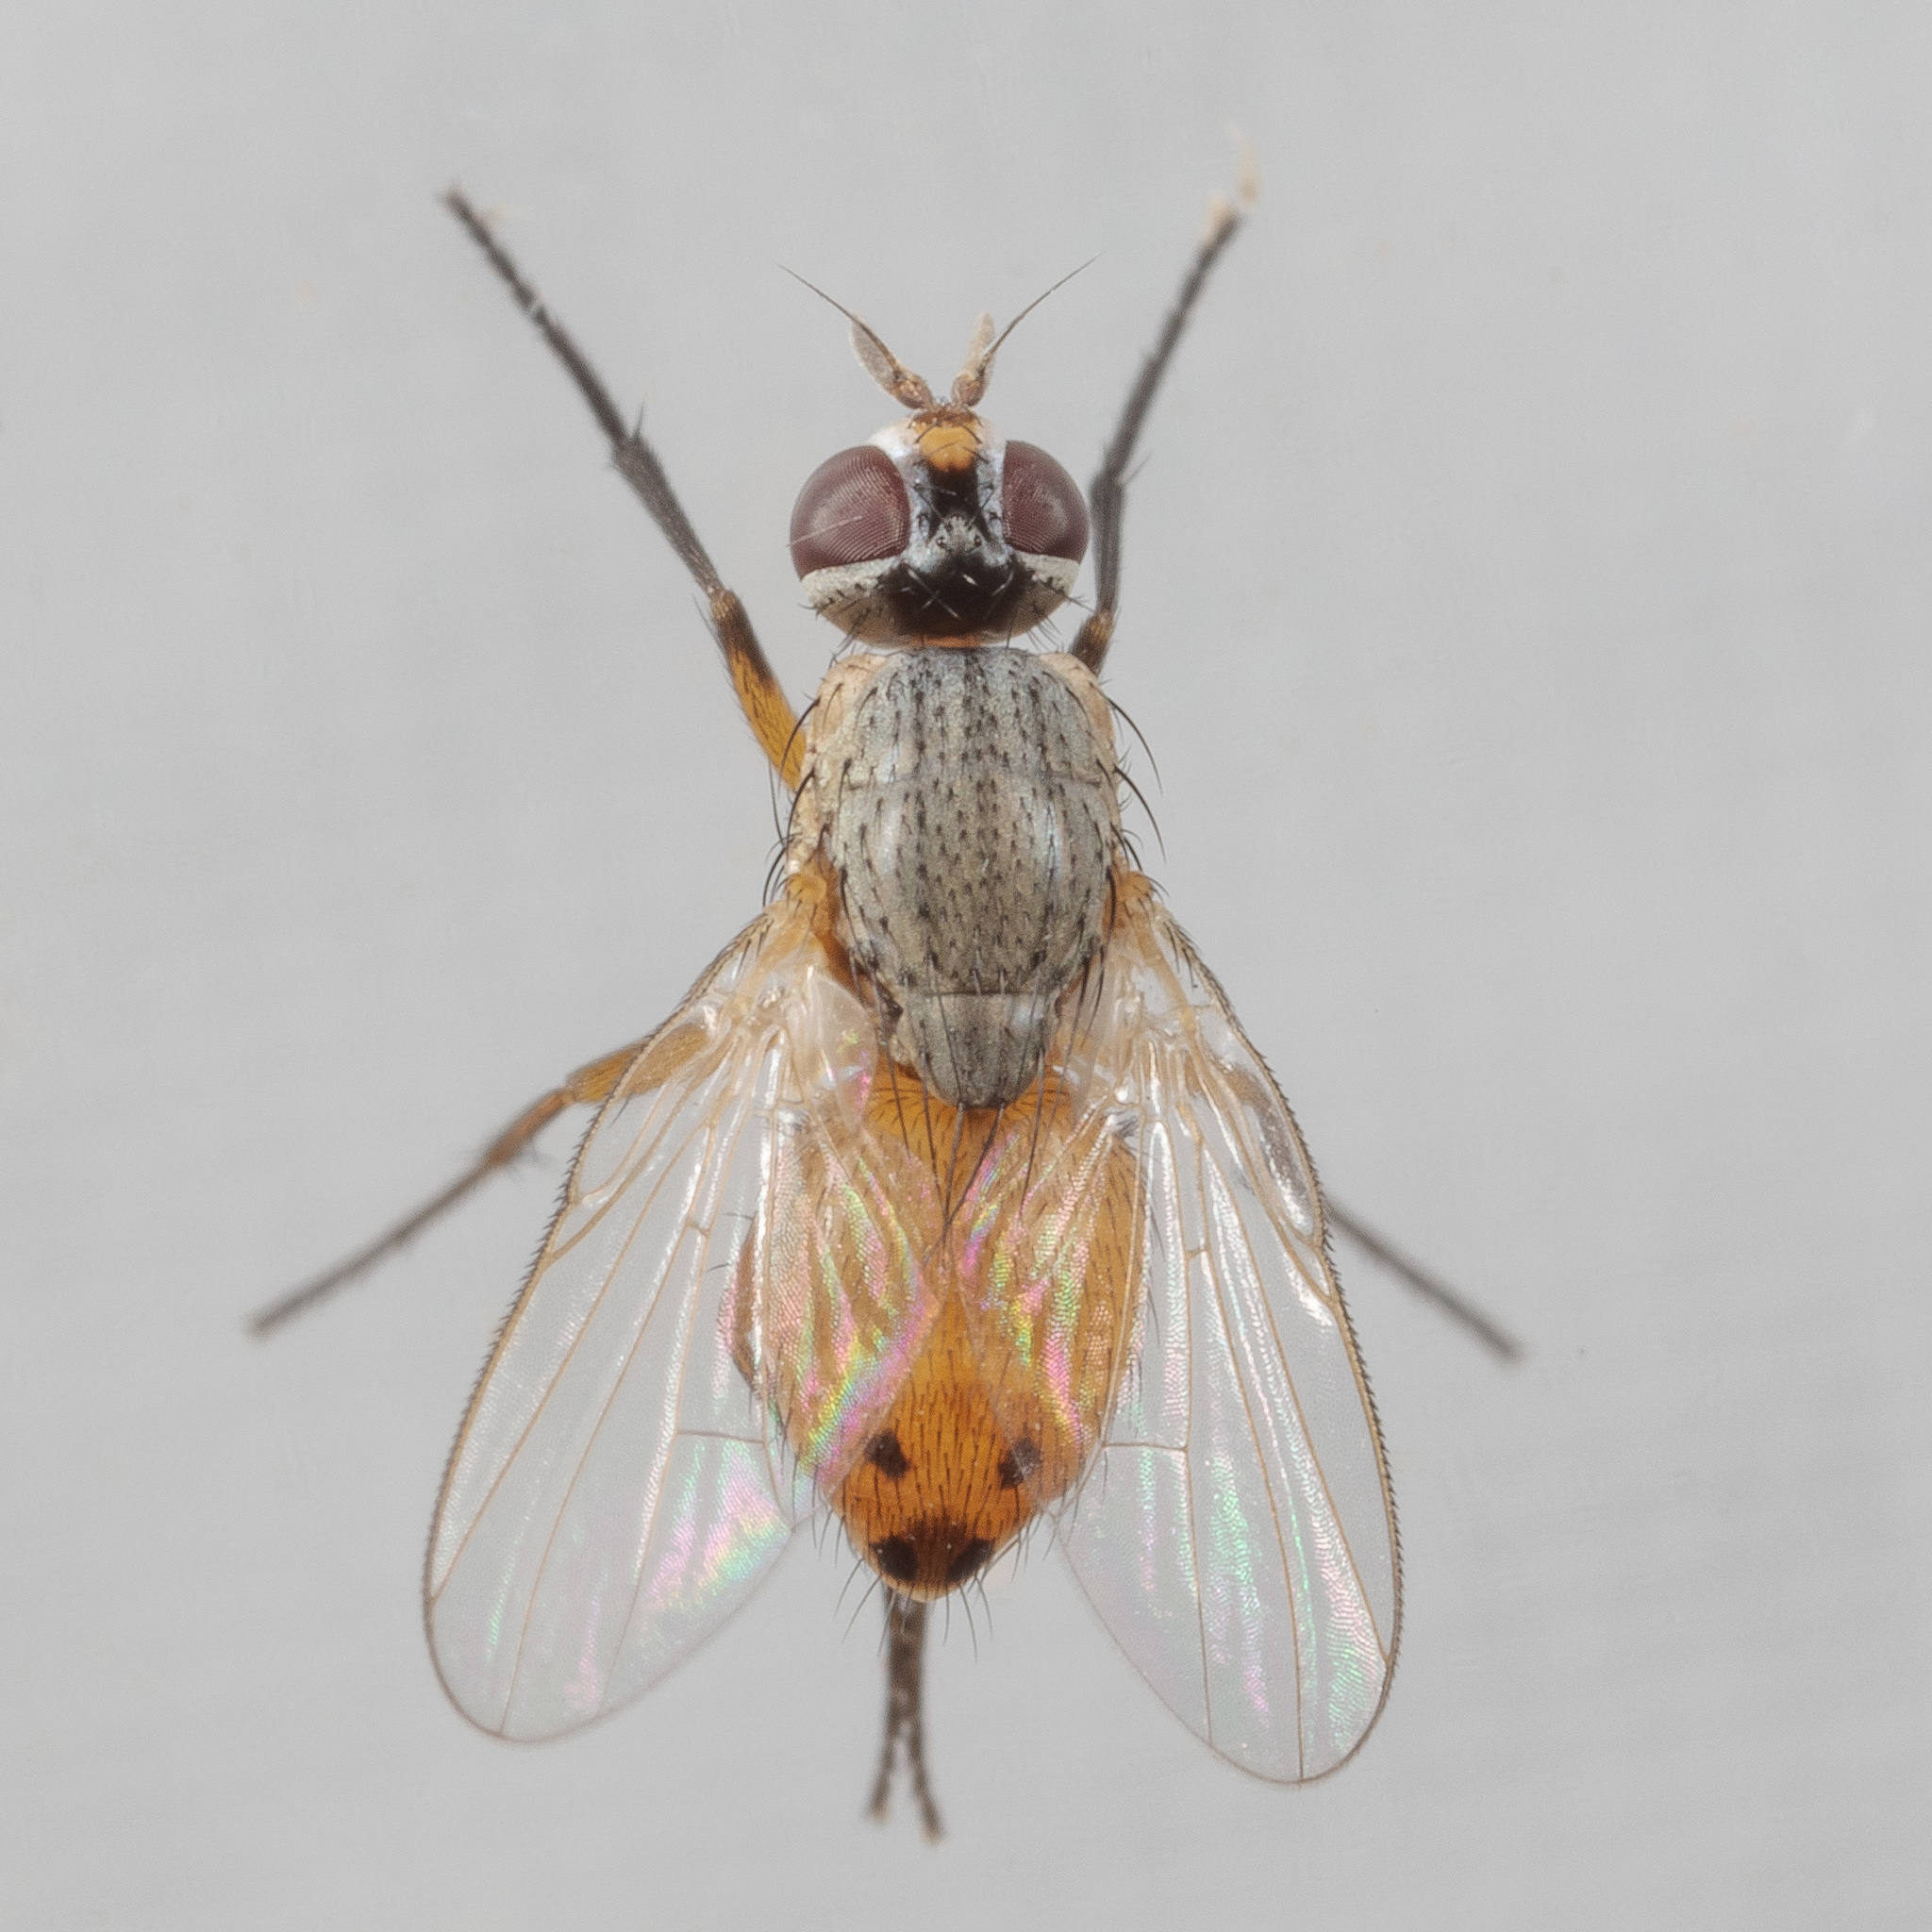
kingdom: Animalia
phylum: Arthropoda
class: Insecta
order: Diptera
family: Muscidae
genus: Atherigona
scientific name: Atherigona reversura
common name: Bermudagrass stem maggot
